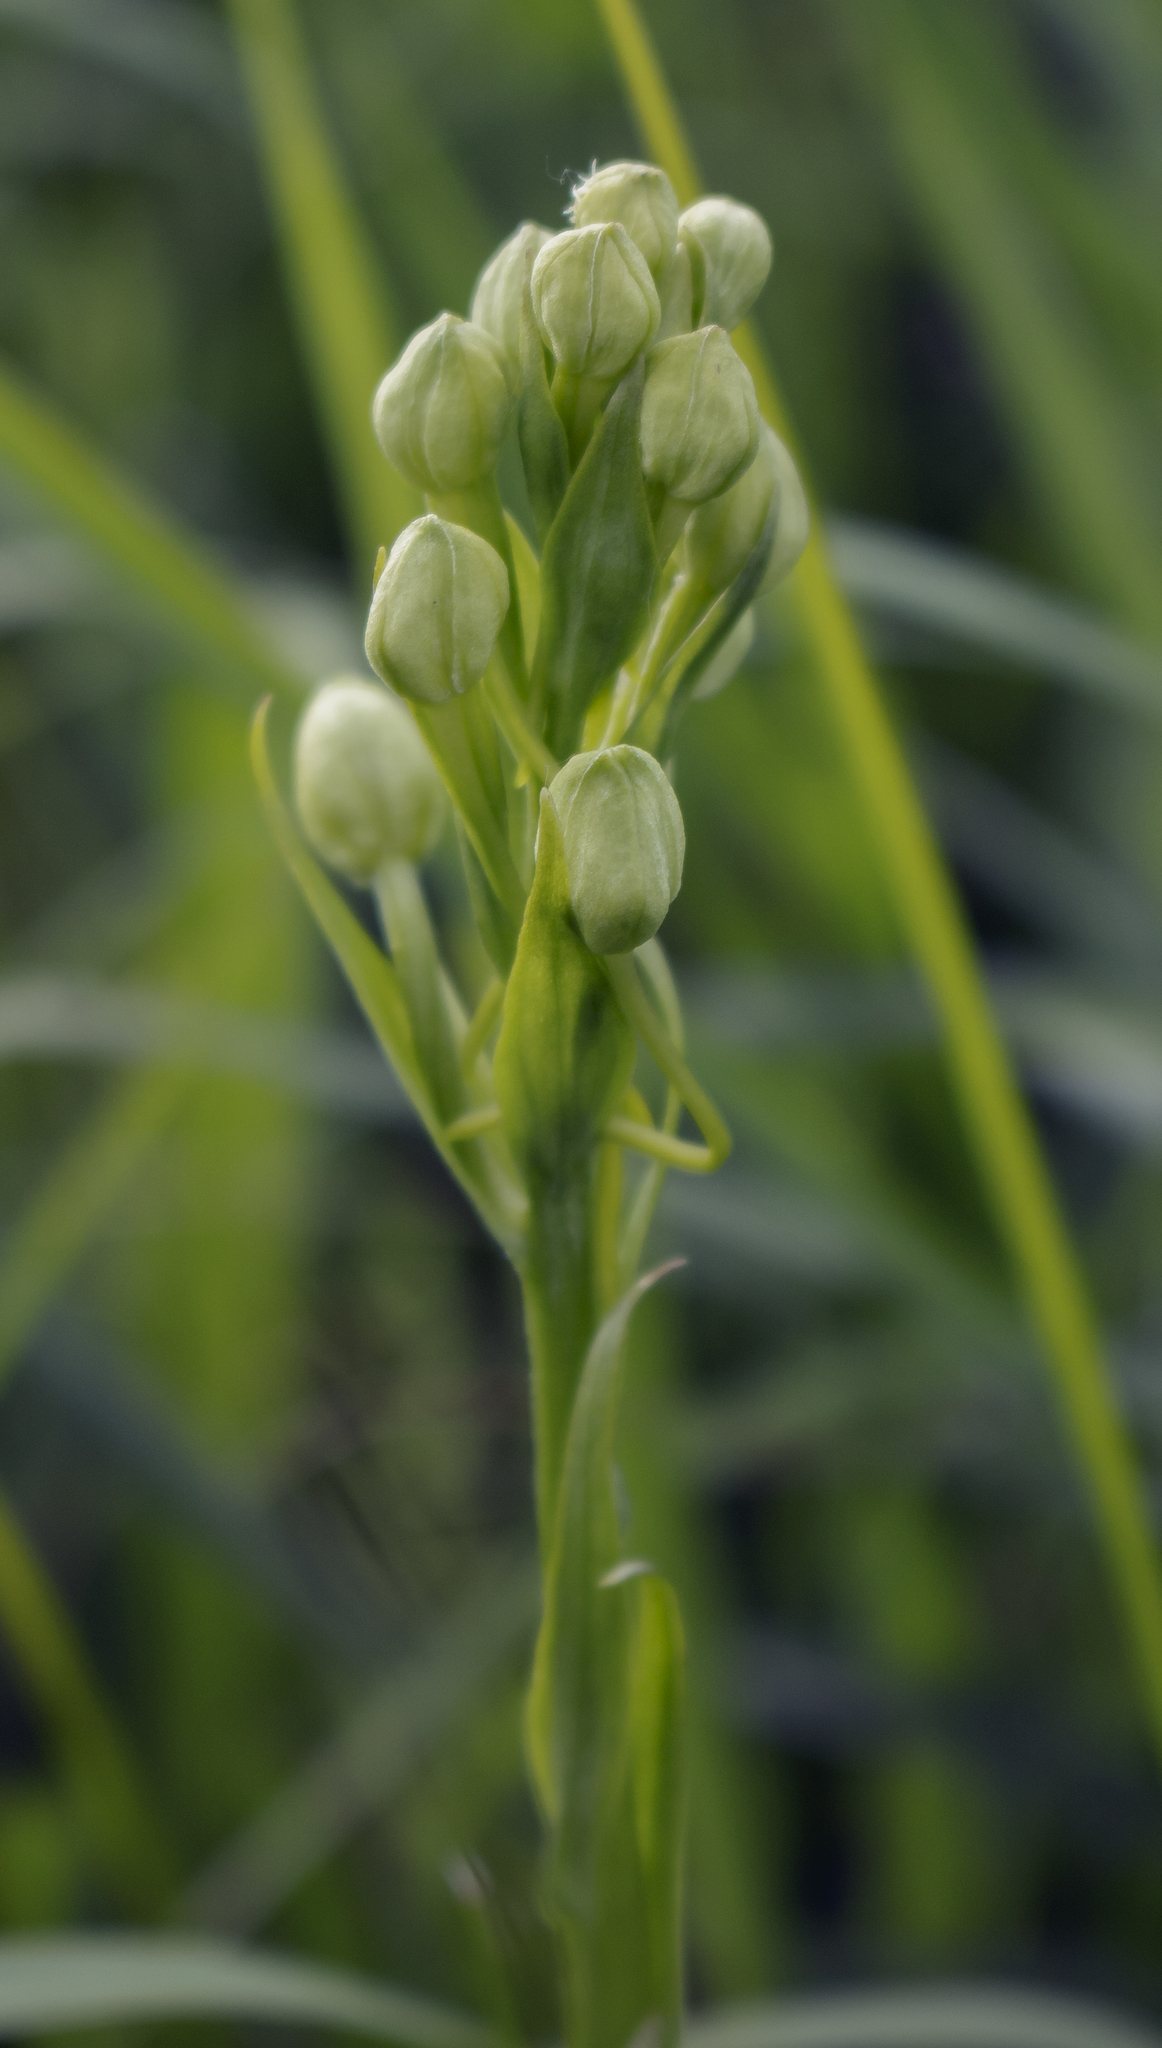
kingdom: Plantae
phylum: Tracheophyta
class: Liliopsida
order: Asparagales
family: Orchidaceae
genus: Platanthera
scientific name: Platanthera leucophaea
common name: Eastern prairie white-fringed orchid
